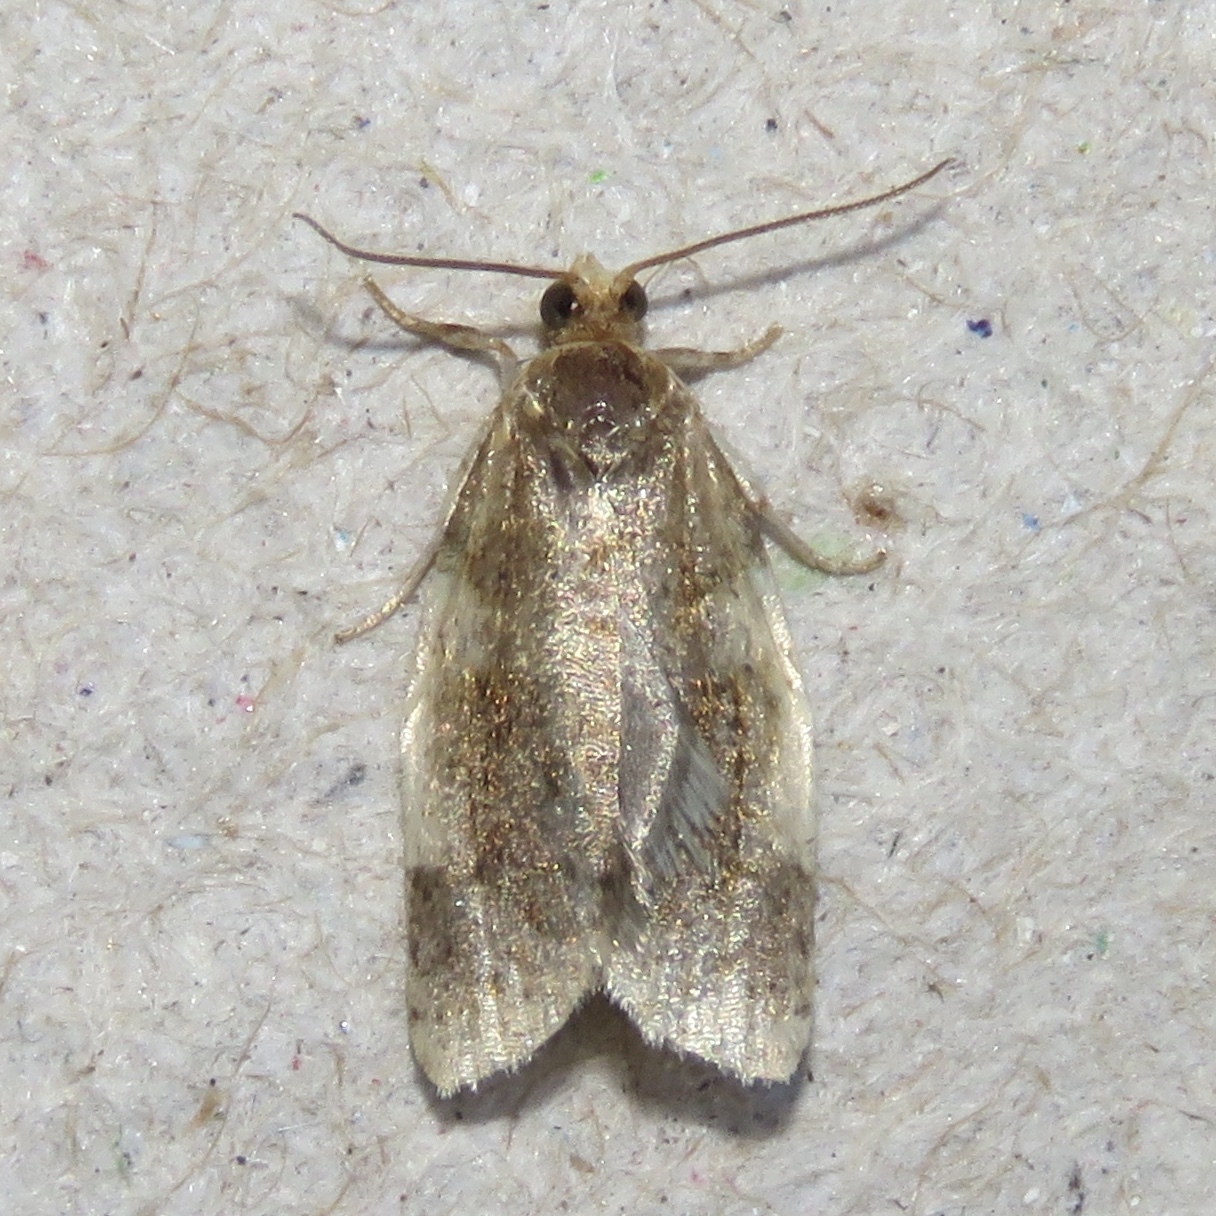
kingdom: Animalia
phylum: Arthropoda
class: Insecta
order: Lepidoptera
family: Tortricidae
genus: Clepsis
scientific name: Clepsis melaleucanus
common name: American apple tortrix
